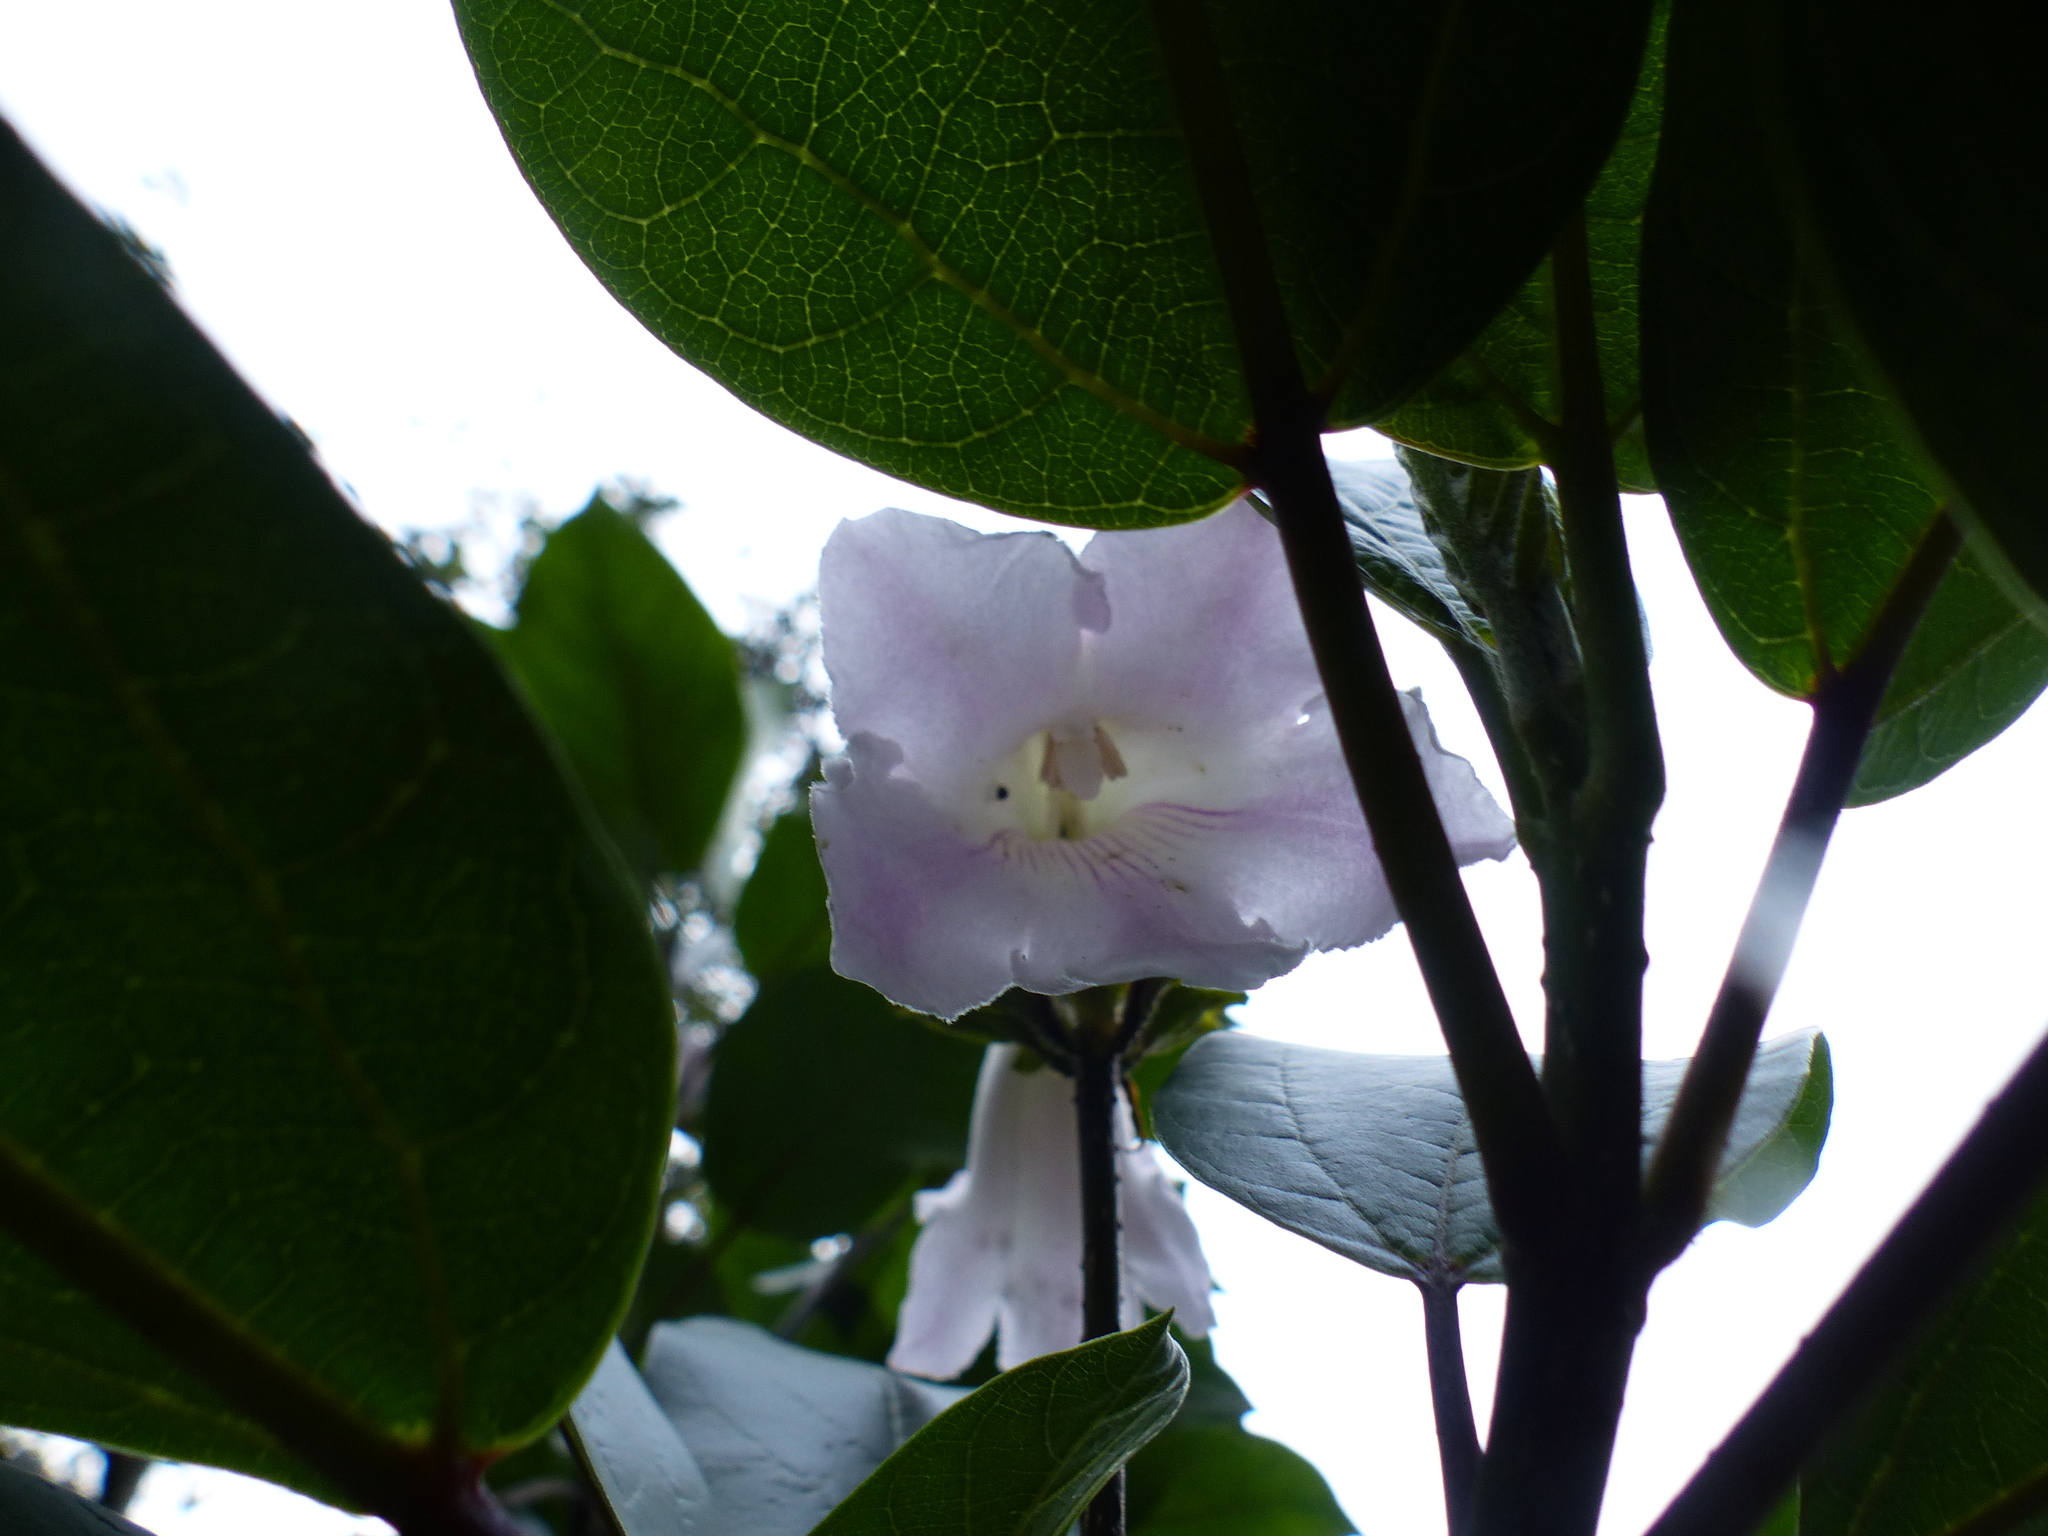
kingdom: Plantae
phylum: Tracheophyta
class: Magnoliopsida
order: Lamiales
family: Bignoniaceae
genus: Delostoma
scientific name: Delostoma integrifolium
